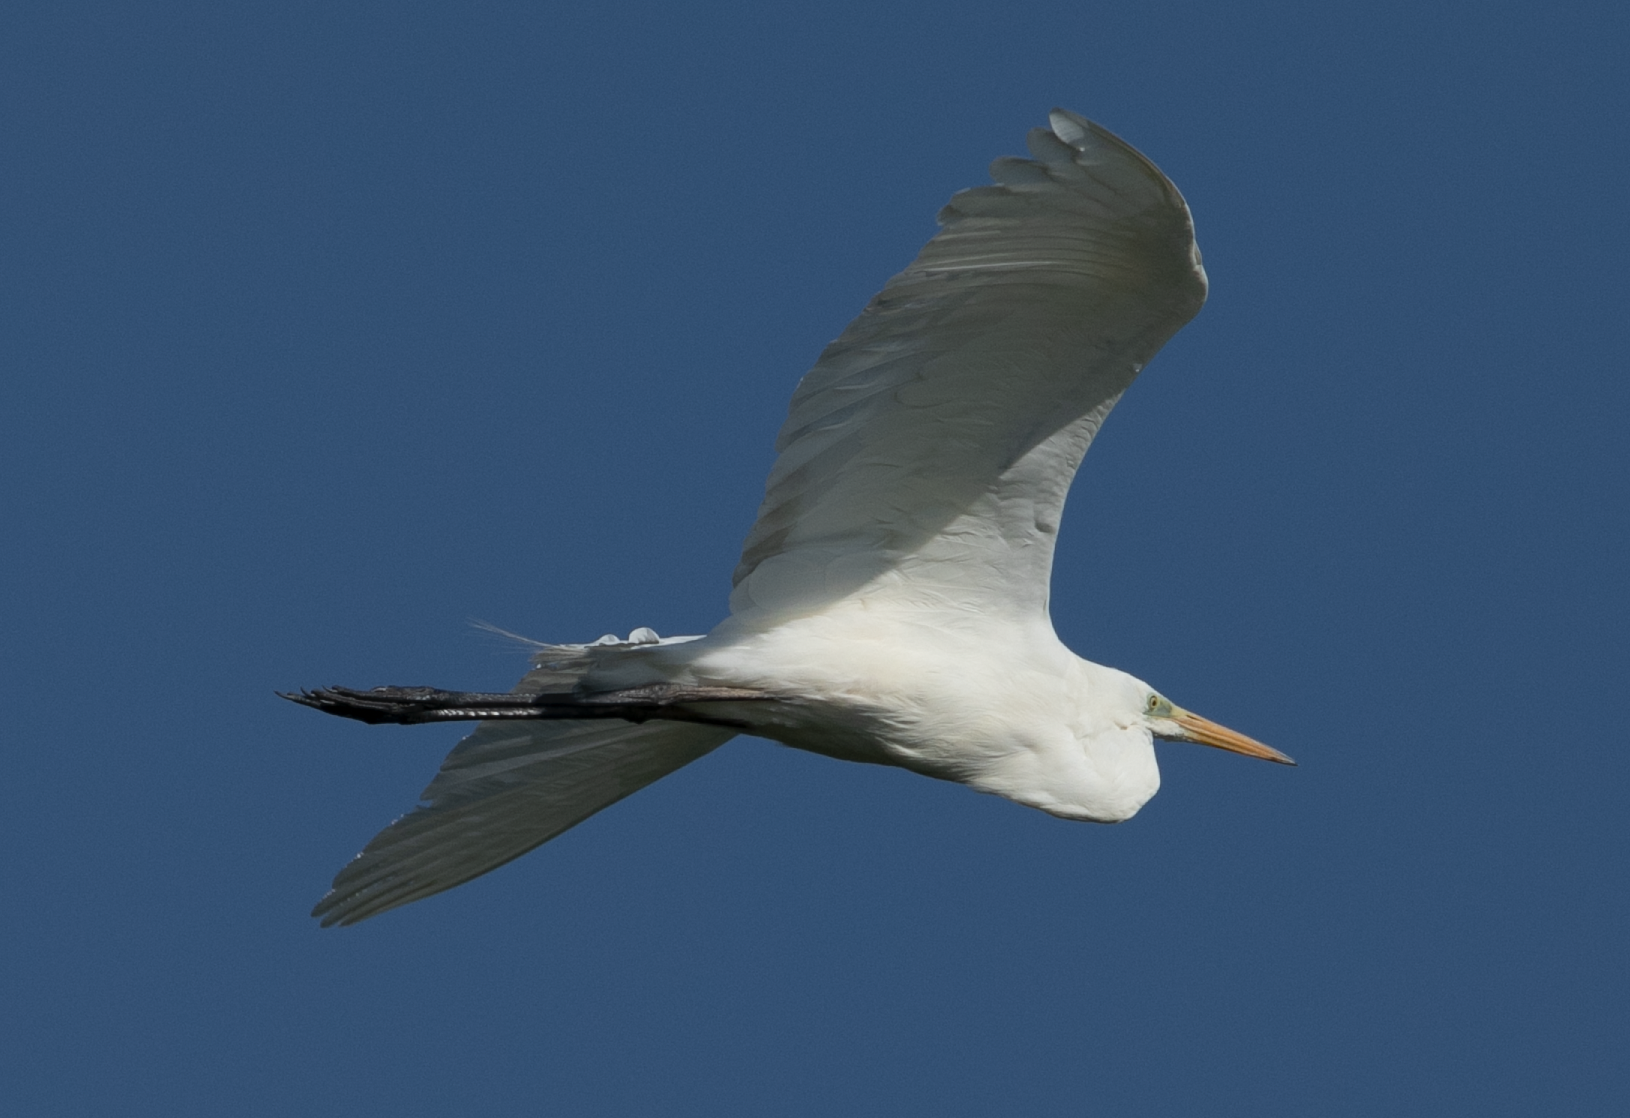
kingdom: Animalia
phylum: Chordata
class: Aves
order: Pelecaniformes
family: Ardeidae
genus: Ardea
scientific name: Ardea alba
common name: Great egret
